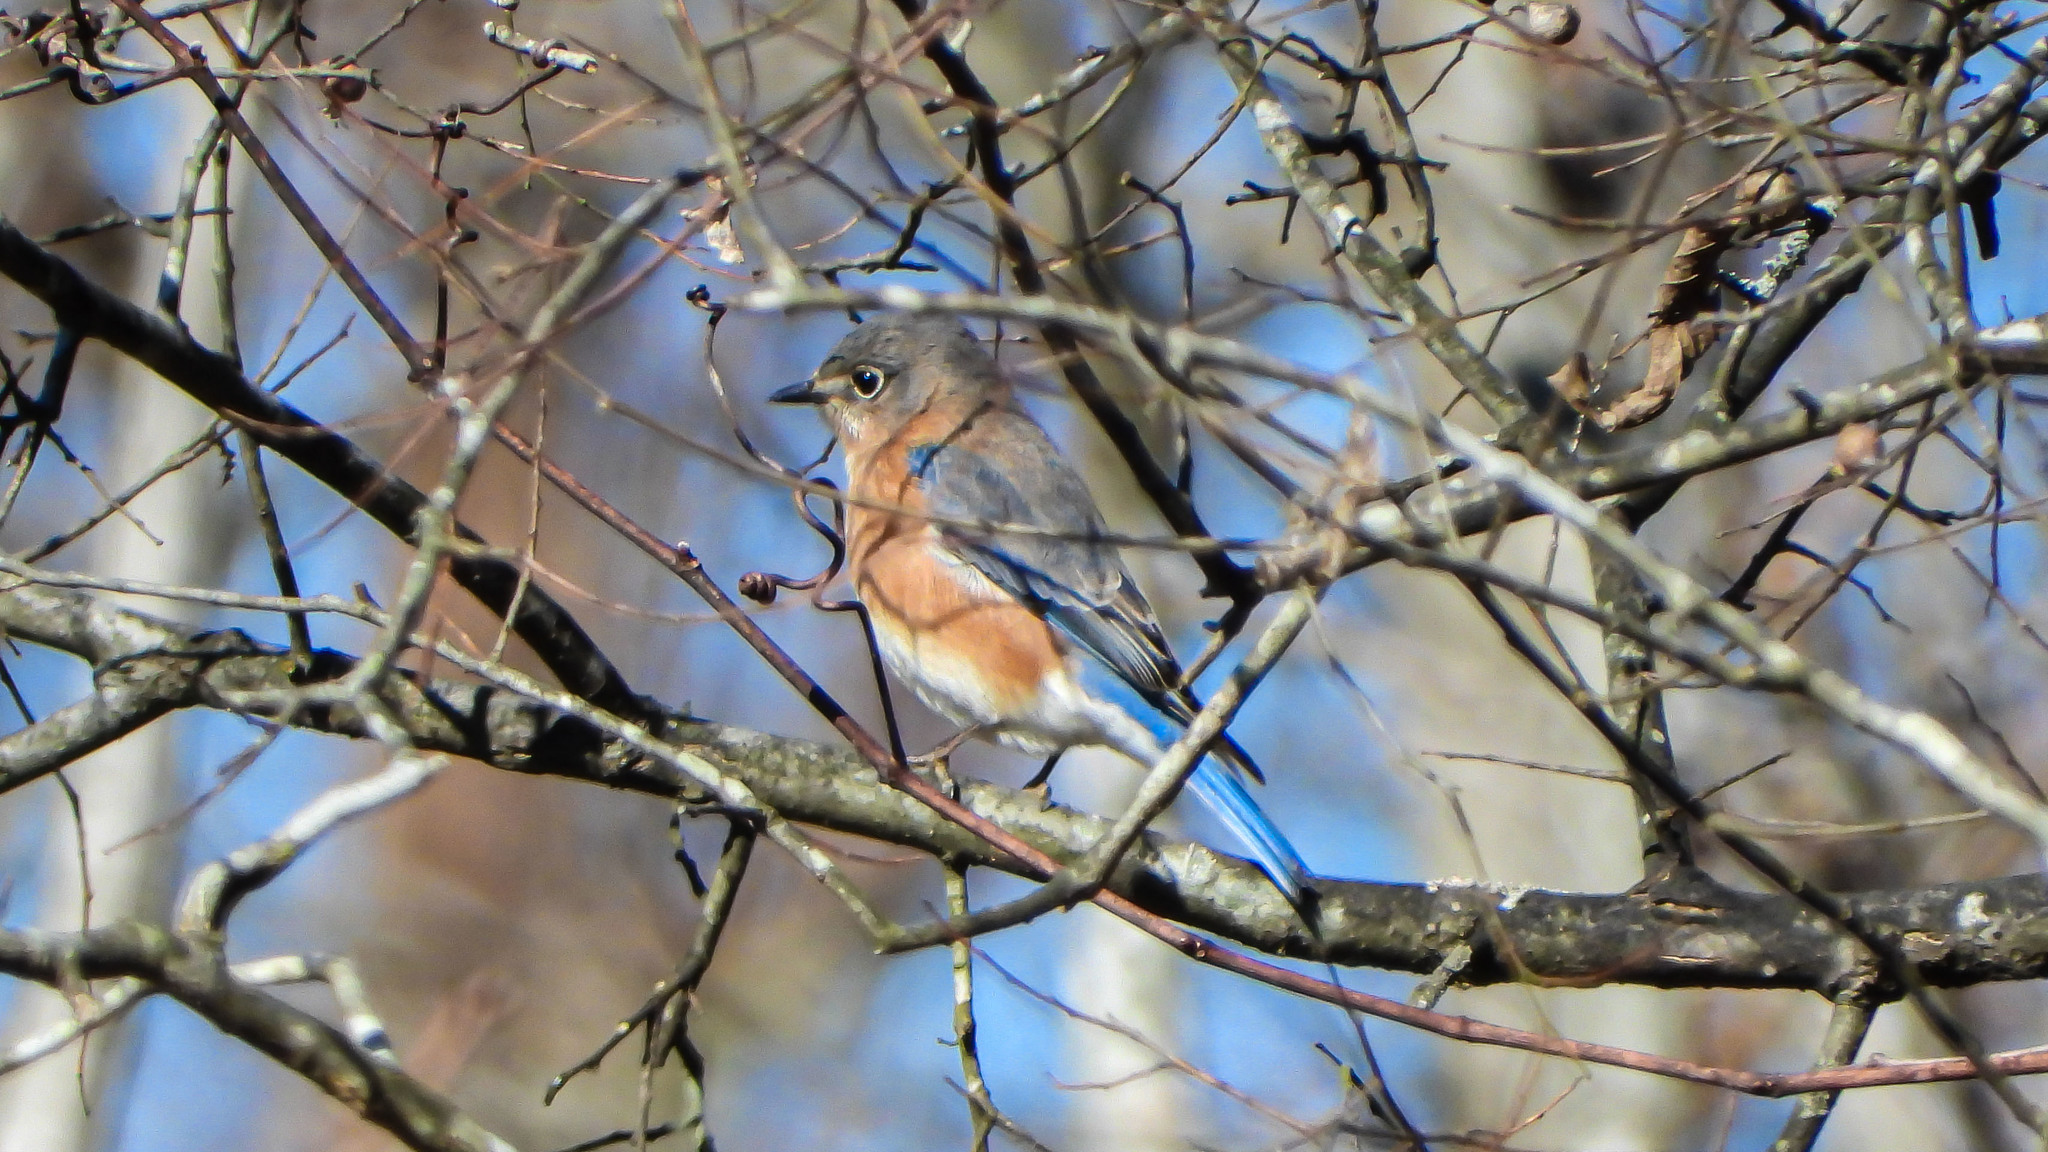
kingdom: Animalia
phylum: Chordata
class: Aves
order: Passeriformes
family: Turdidae
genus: Sialia
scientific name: Sialia sialis
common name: Eastern bluebird
